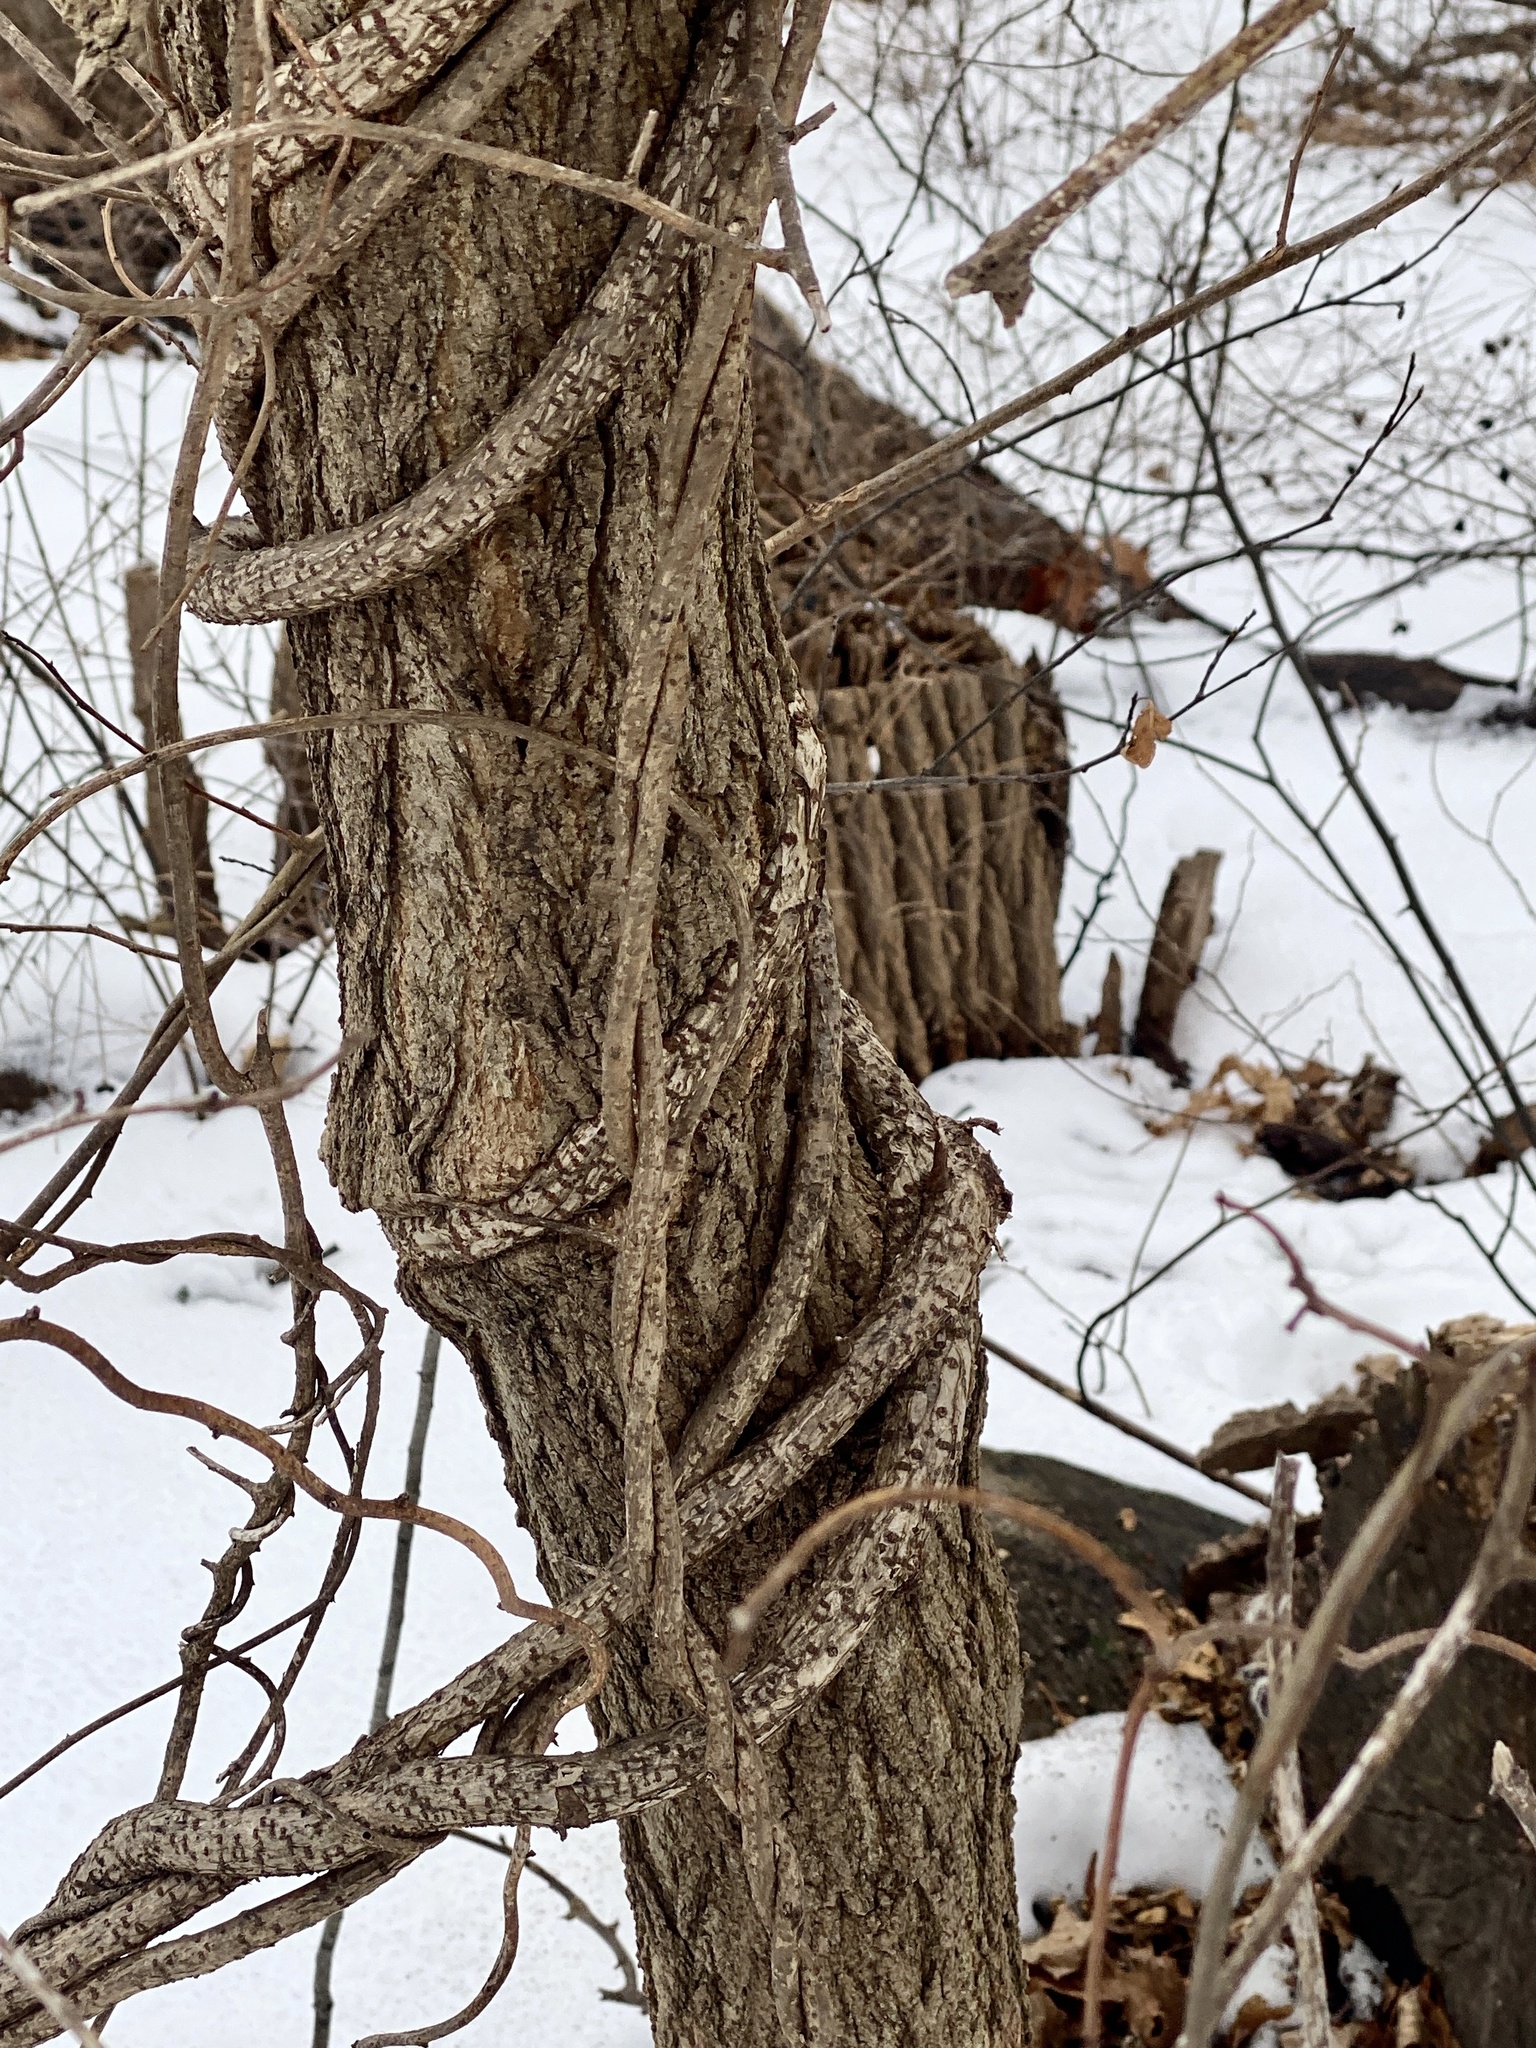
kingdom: Plantae
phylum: Tracheophyta
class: Magnoliopsida
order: Celastrales
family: Celastraceae
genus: Celastrus
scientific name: Celastrus orbiculatus
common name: Oriental bittersweet
